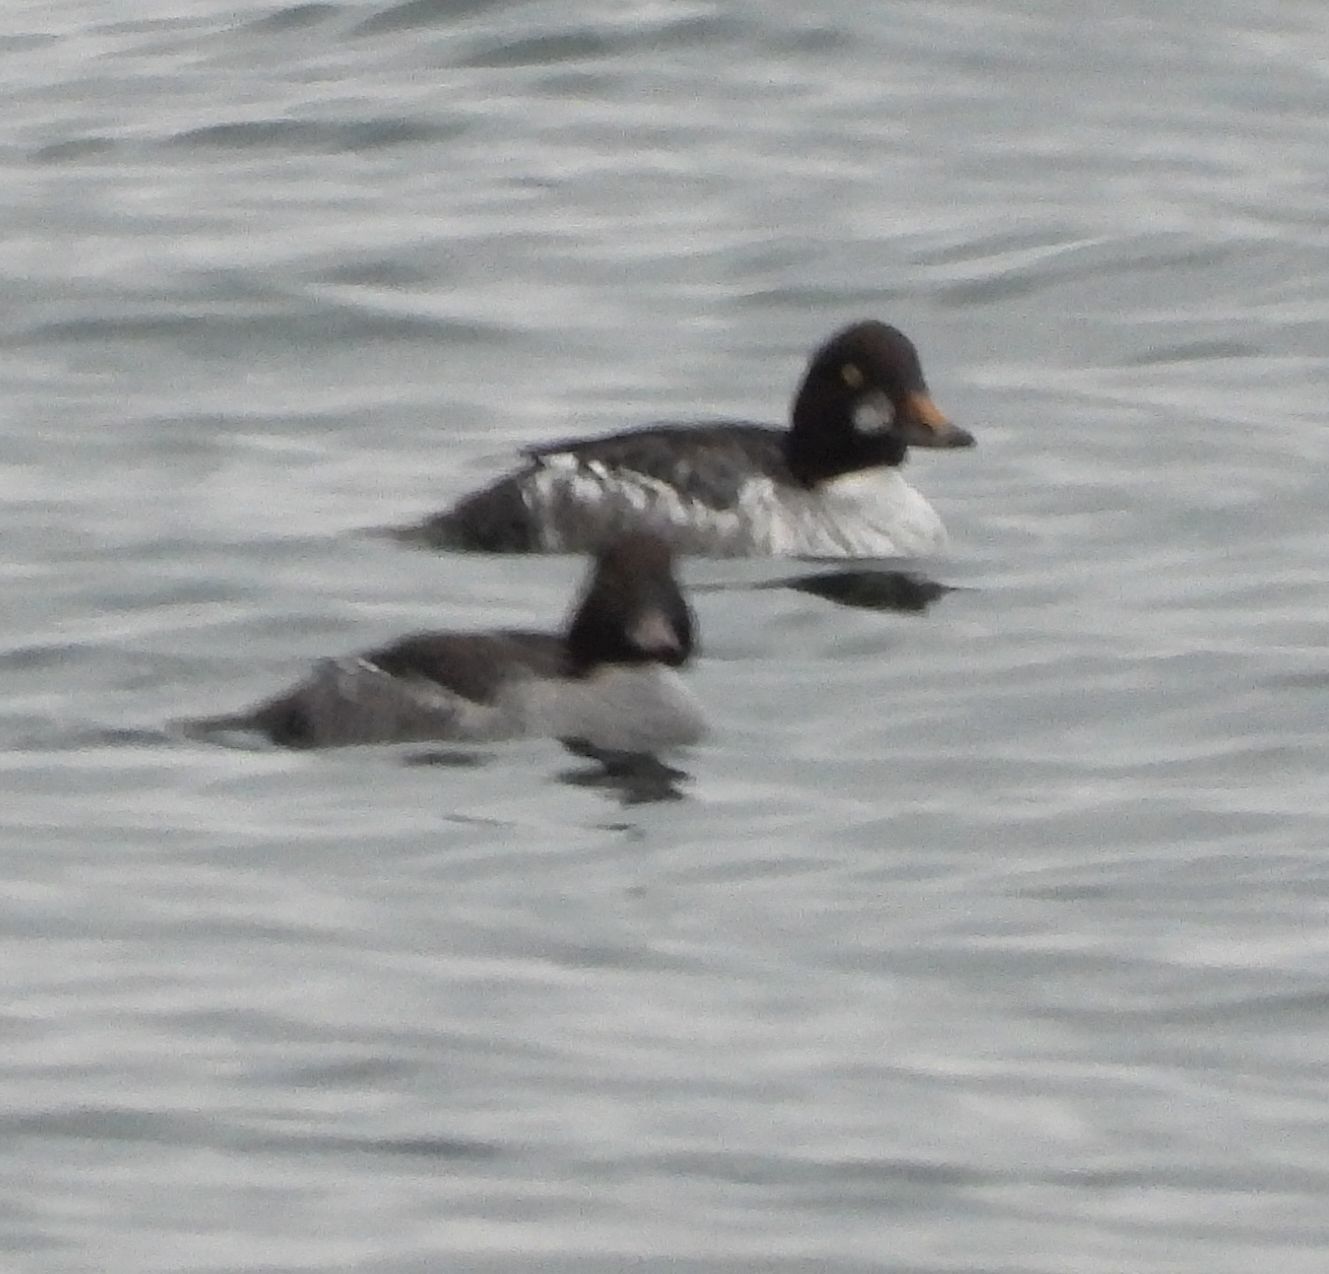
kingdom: Animalia
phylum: Chordata
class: Aves
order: Anseriformes
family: Anatidae
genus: Bucephala
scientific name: Bucephala clangula
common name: Common goldeneye
